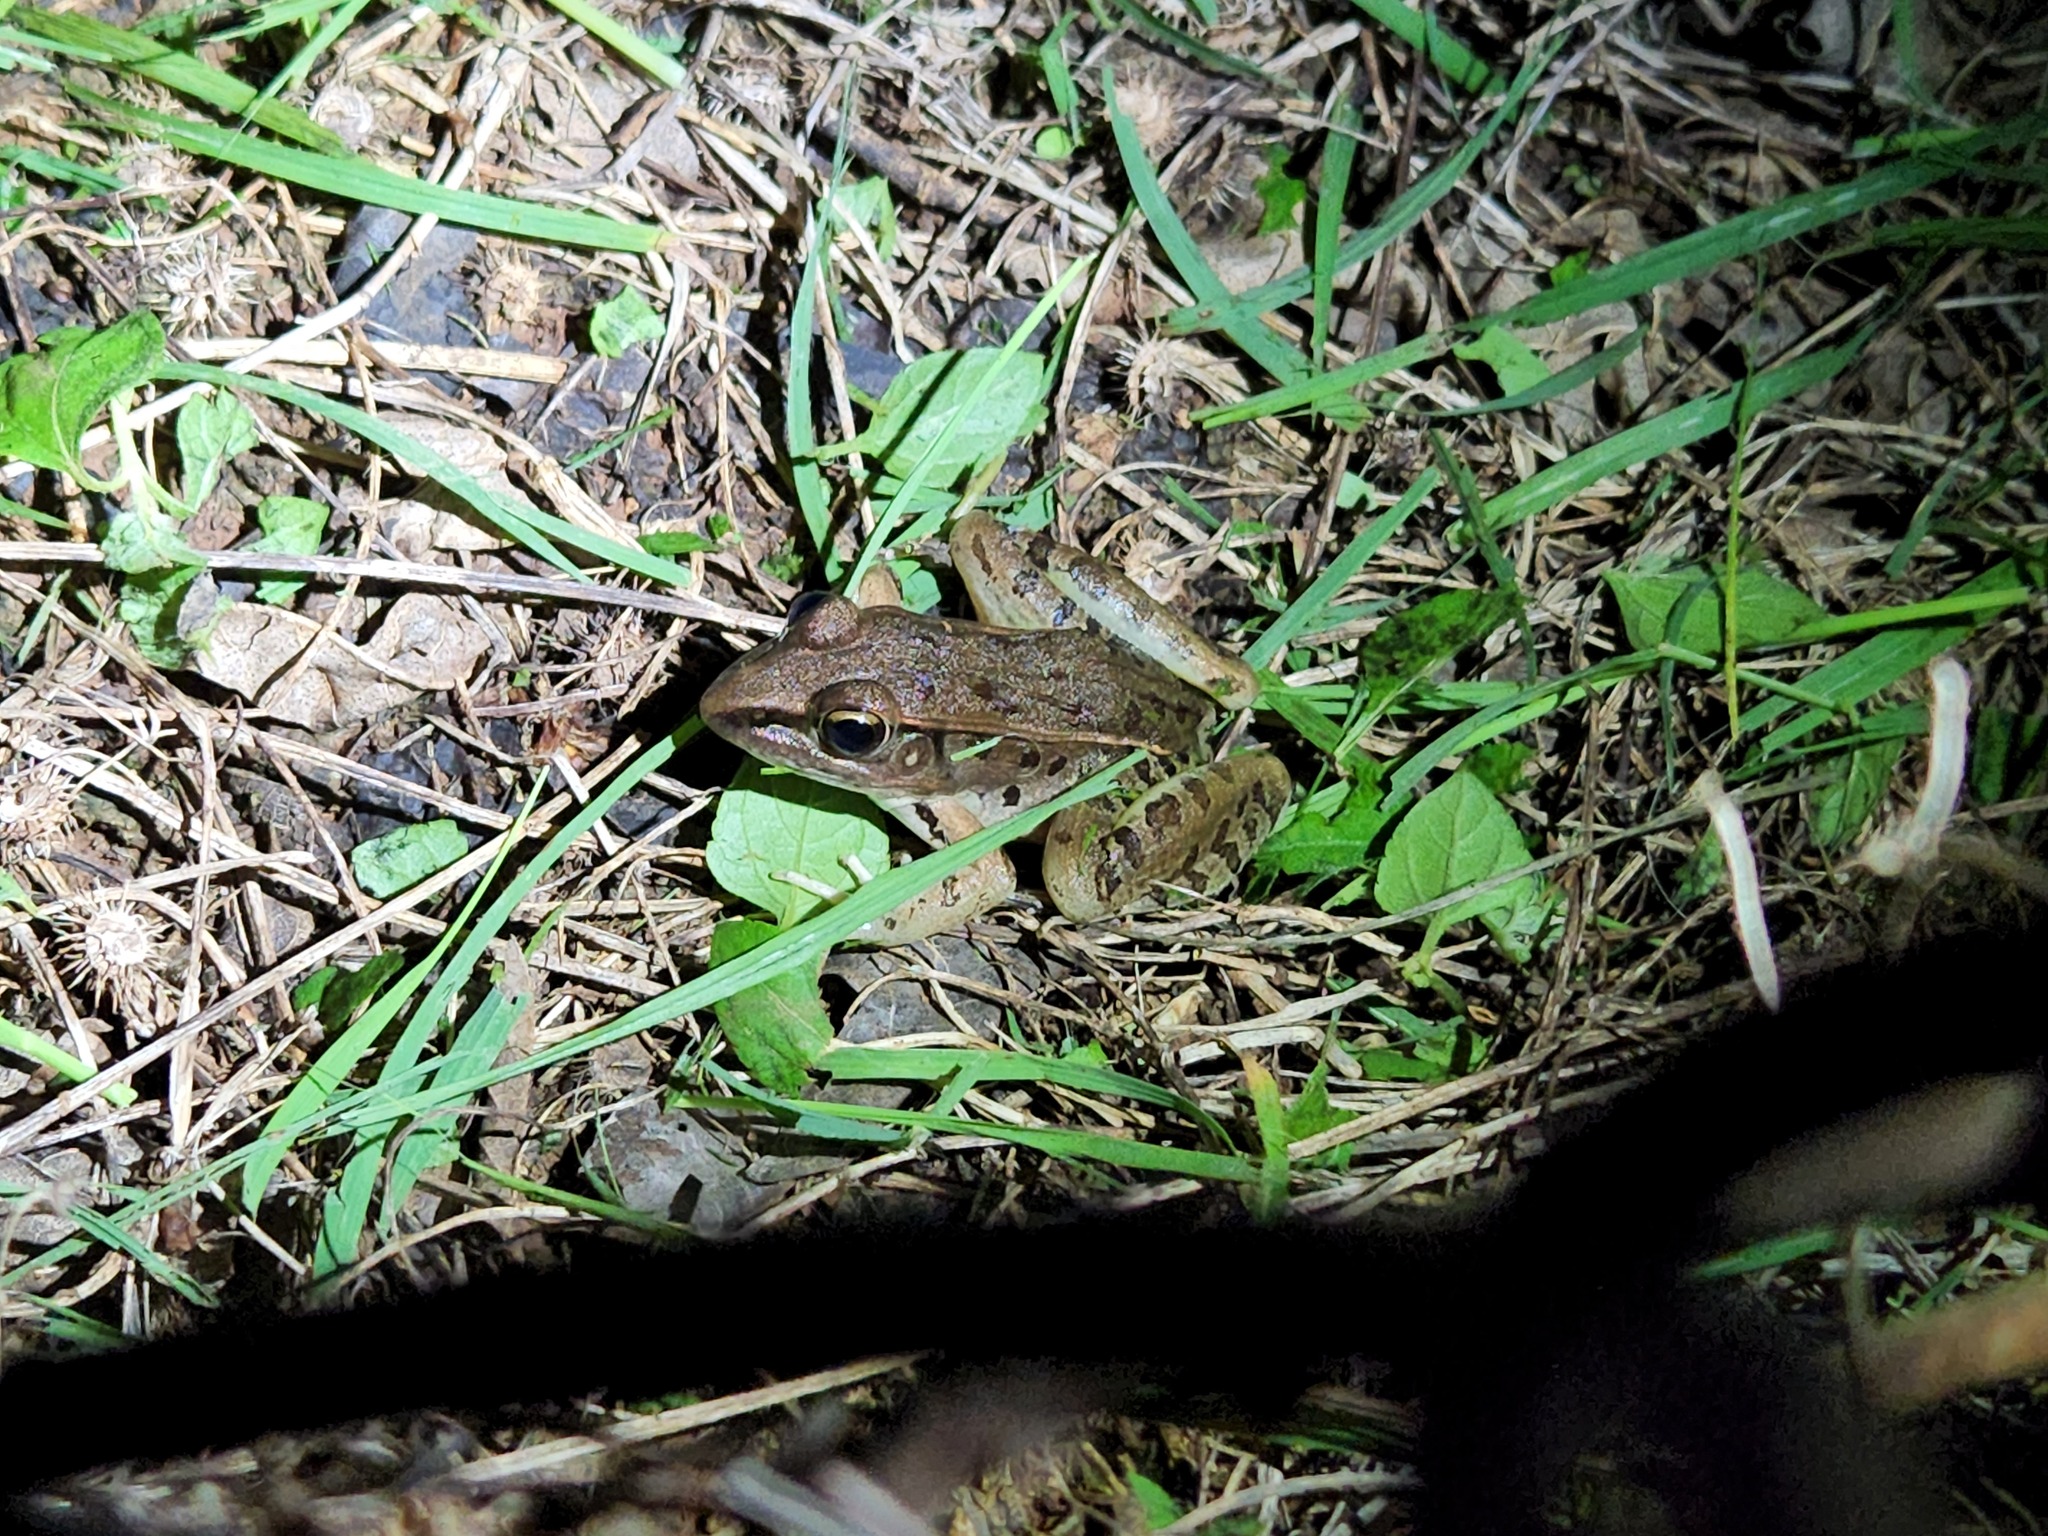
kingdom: Animalia
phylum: Chordata
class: Amphibia
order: Anura
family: Ranidae
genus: Lithobates
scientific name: Lithobates sphenocephalus
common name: Southern leopard frog
